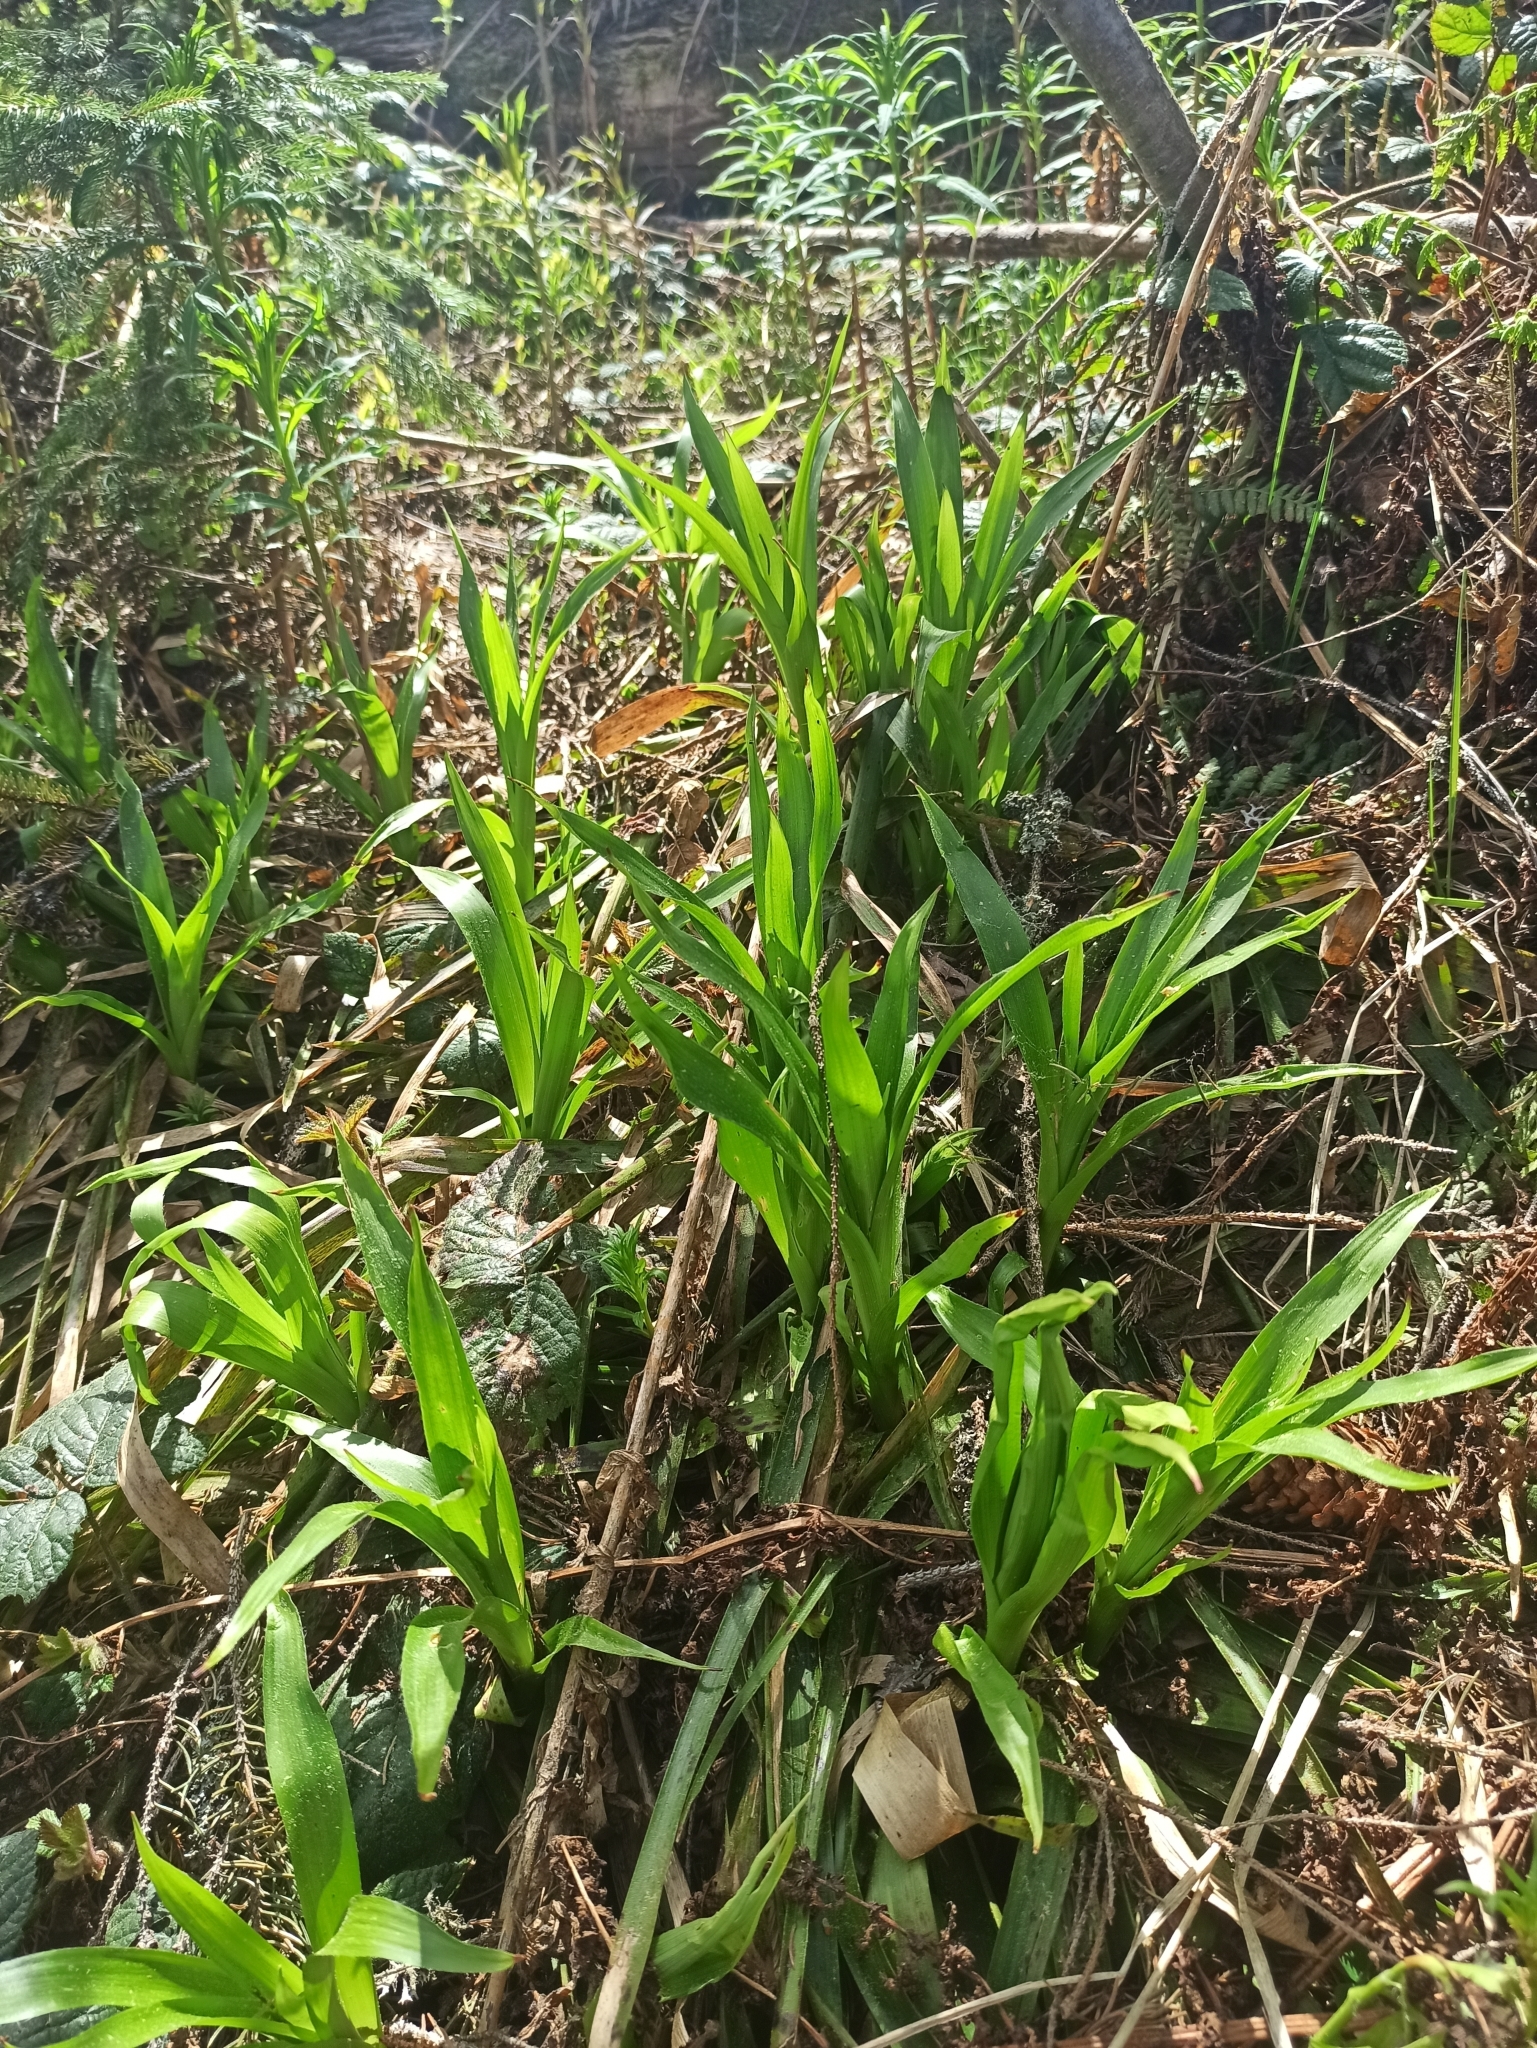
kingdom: Plantae
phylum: Tracheophyta
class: Liliopsida
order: Poales
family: Juncaceae
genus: Luzula
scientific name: Luzula sylvatica
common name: Great wood-rush
